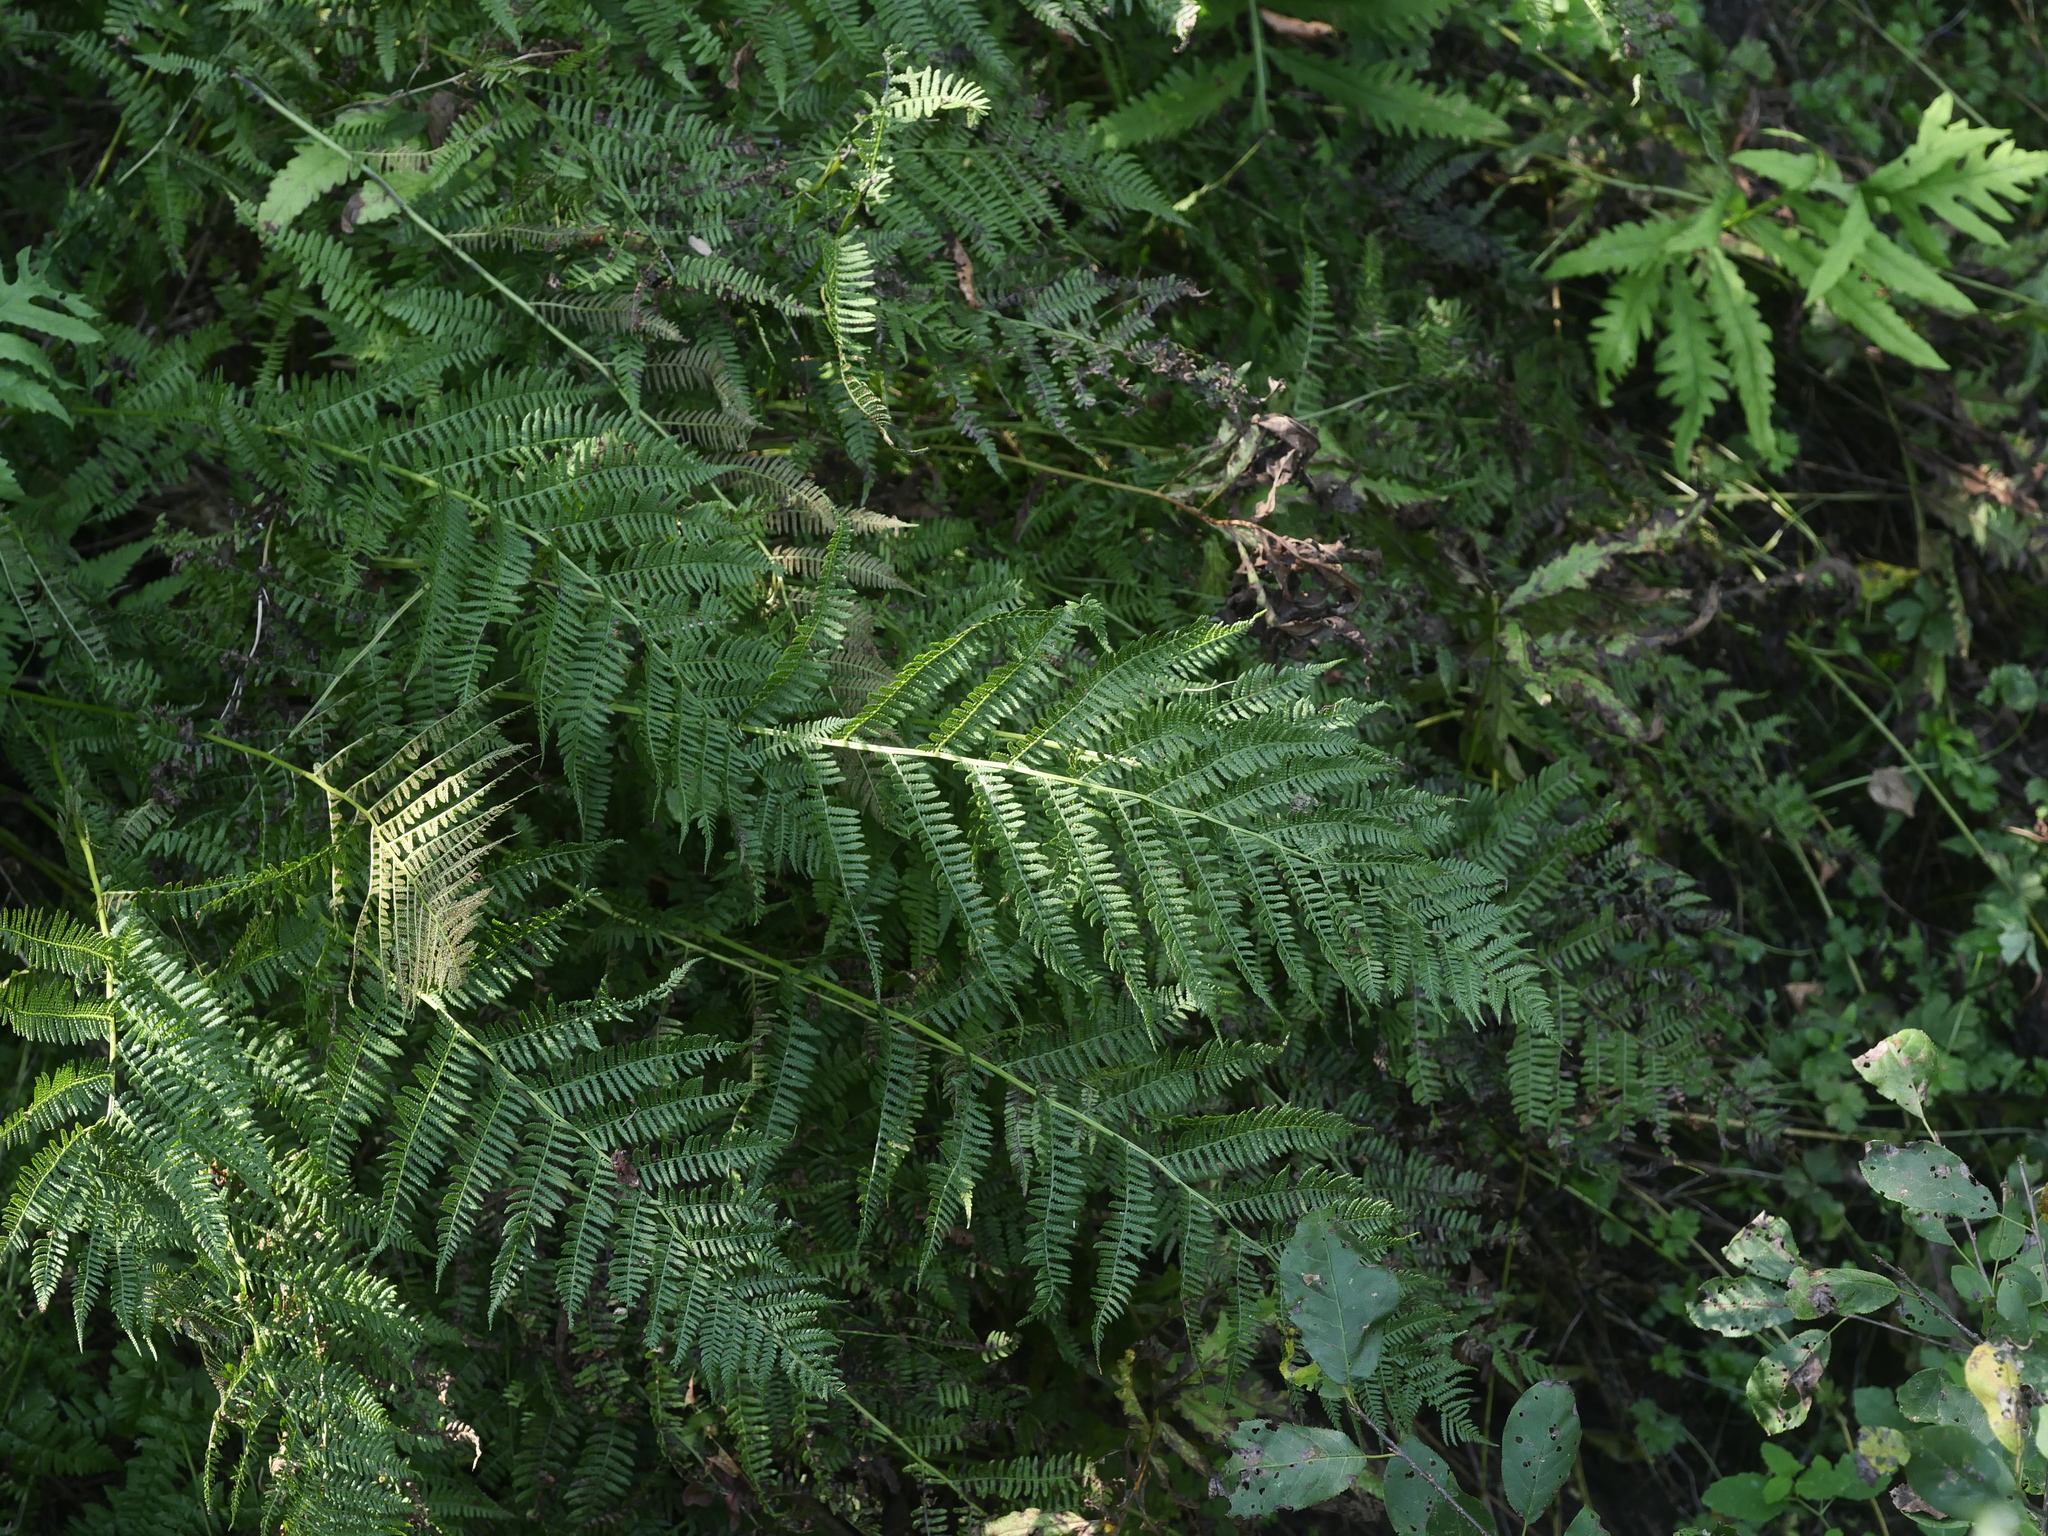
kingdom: Plantae
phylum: Tracheophyta
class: Polypodiopsida
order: Polypodiales
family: Athyriaceae
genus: Athyrium
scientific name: Athyrium angustum
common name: Northern lady fern
